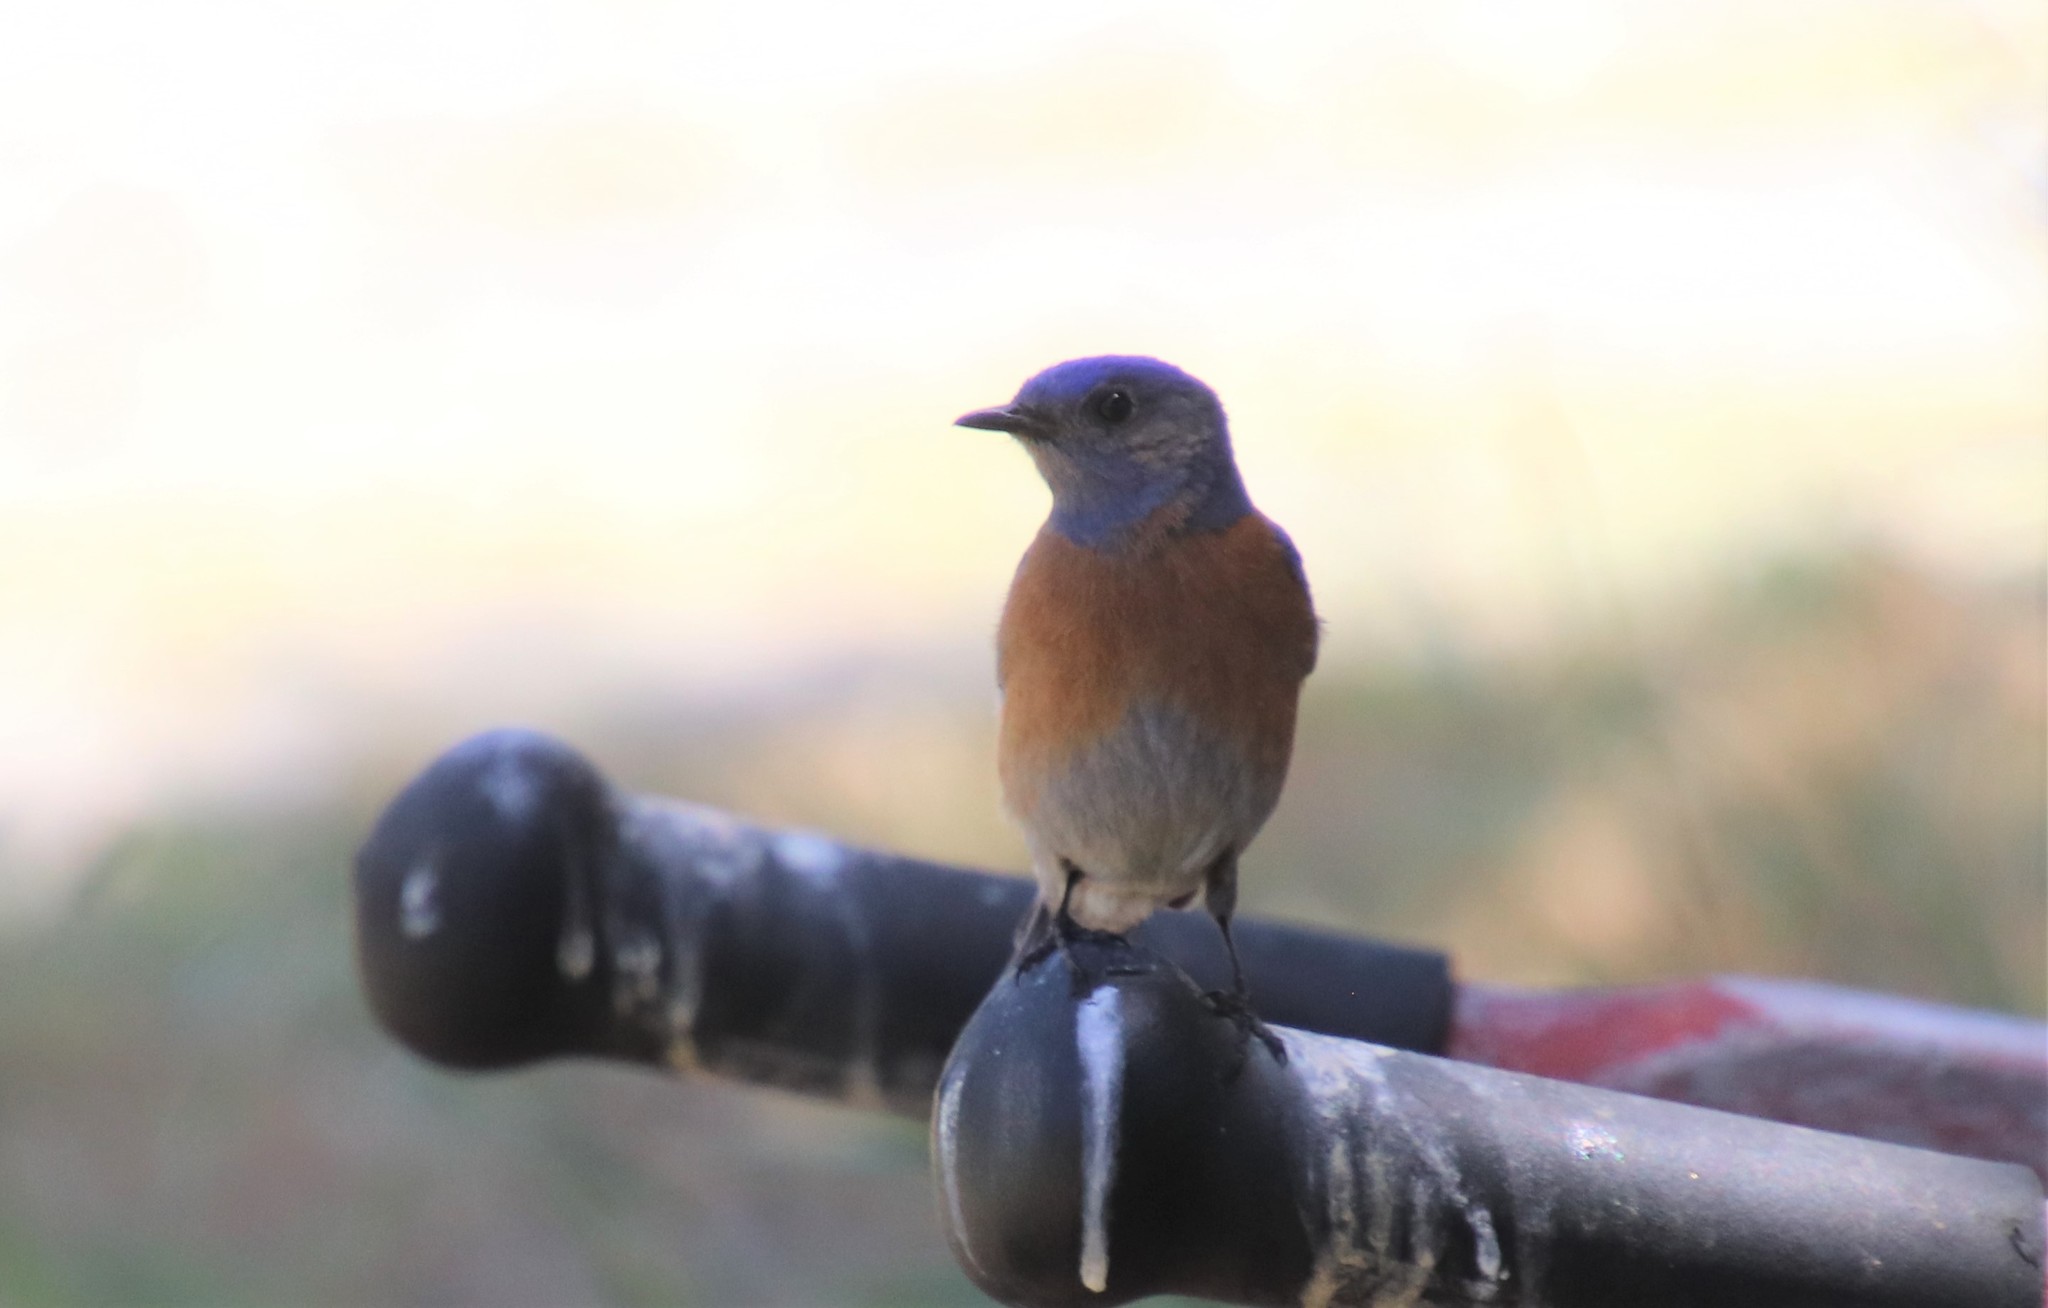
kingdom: Animalia
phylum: Chordata
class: Aves
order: Passeriformes
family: Turdidae
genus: Sialia
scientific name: Sialia mexicana
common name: Western bluebird
